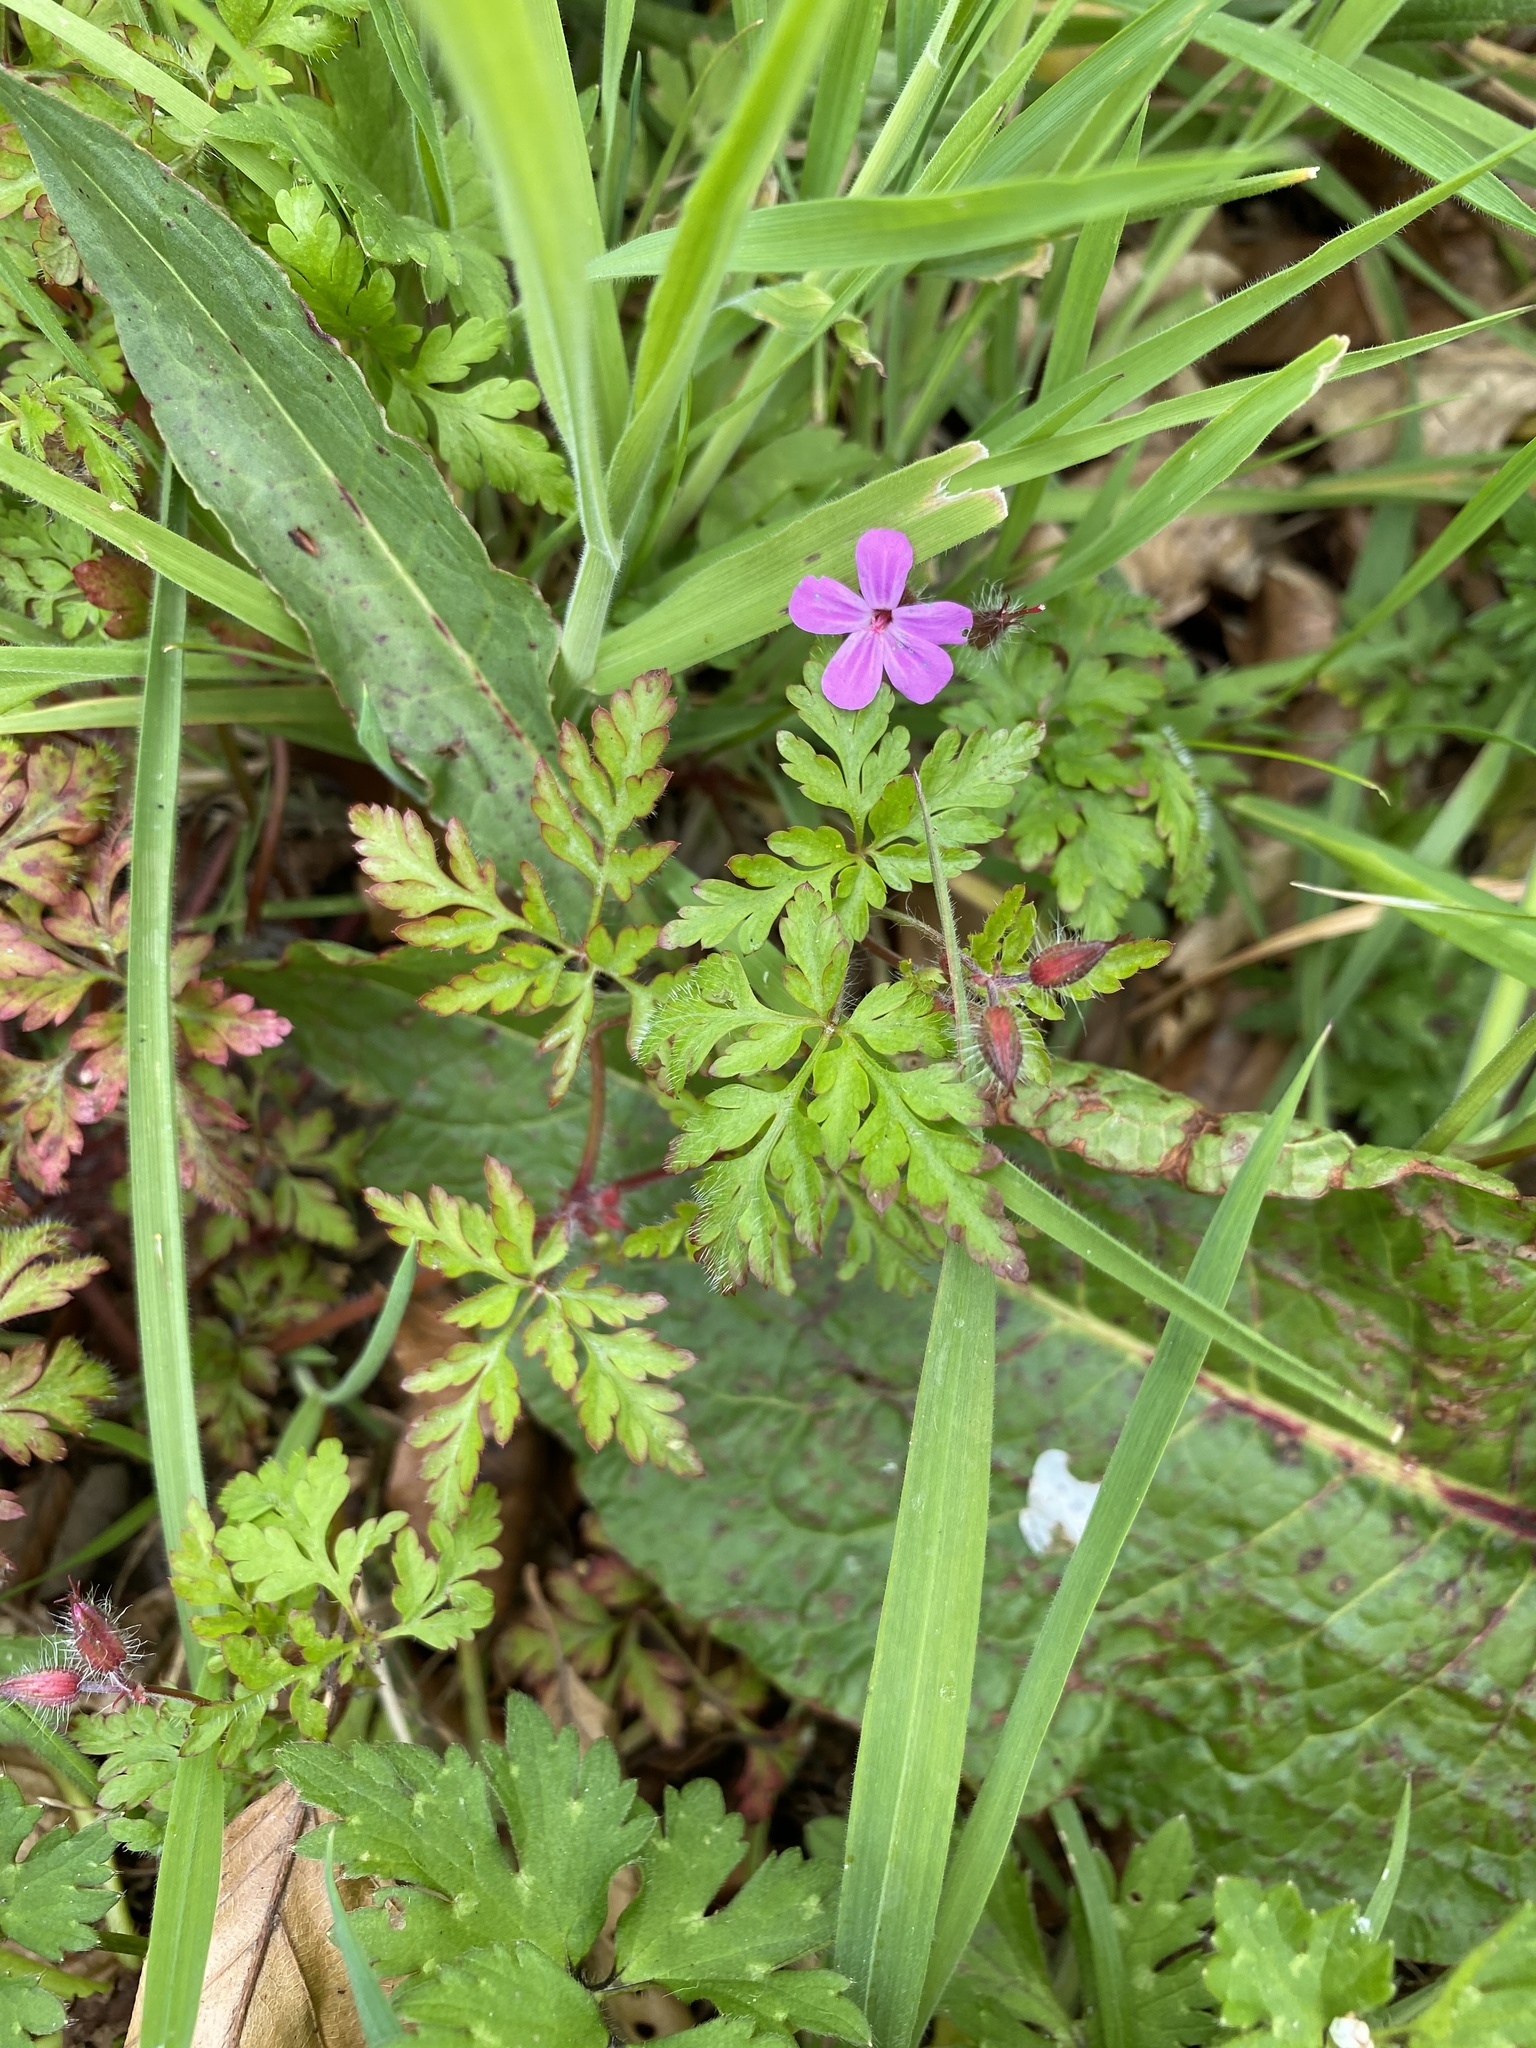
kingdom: Plantae
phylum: Tracheophyta
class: Magnoliopsida
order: Geraniales
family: Geraniaceae
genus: Geranium
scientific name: Geranium robertianum
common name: Herb-robert
